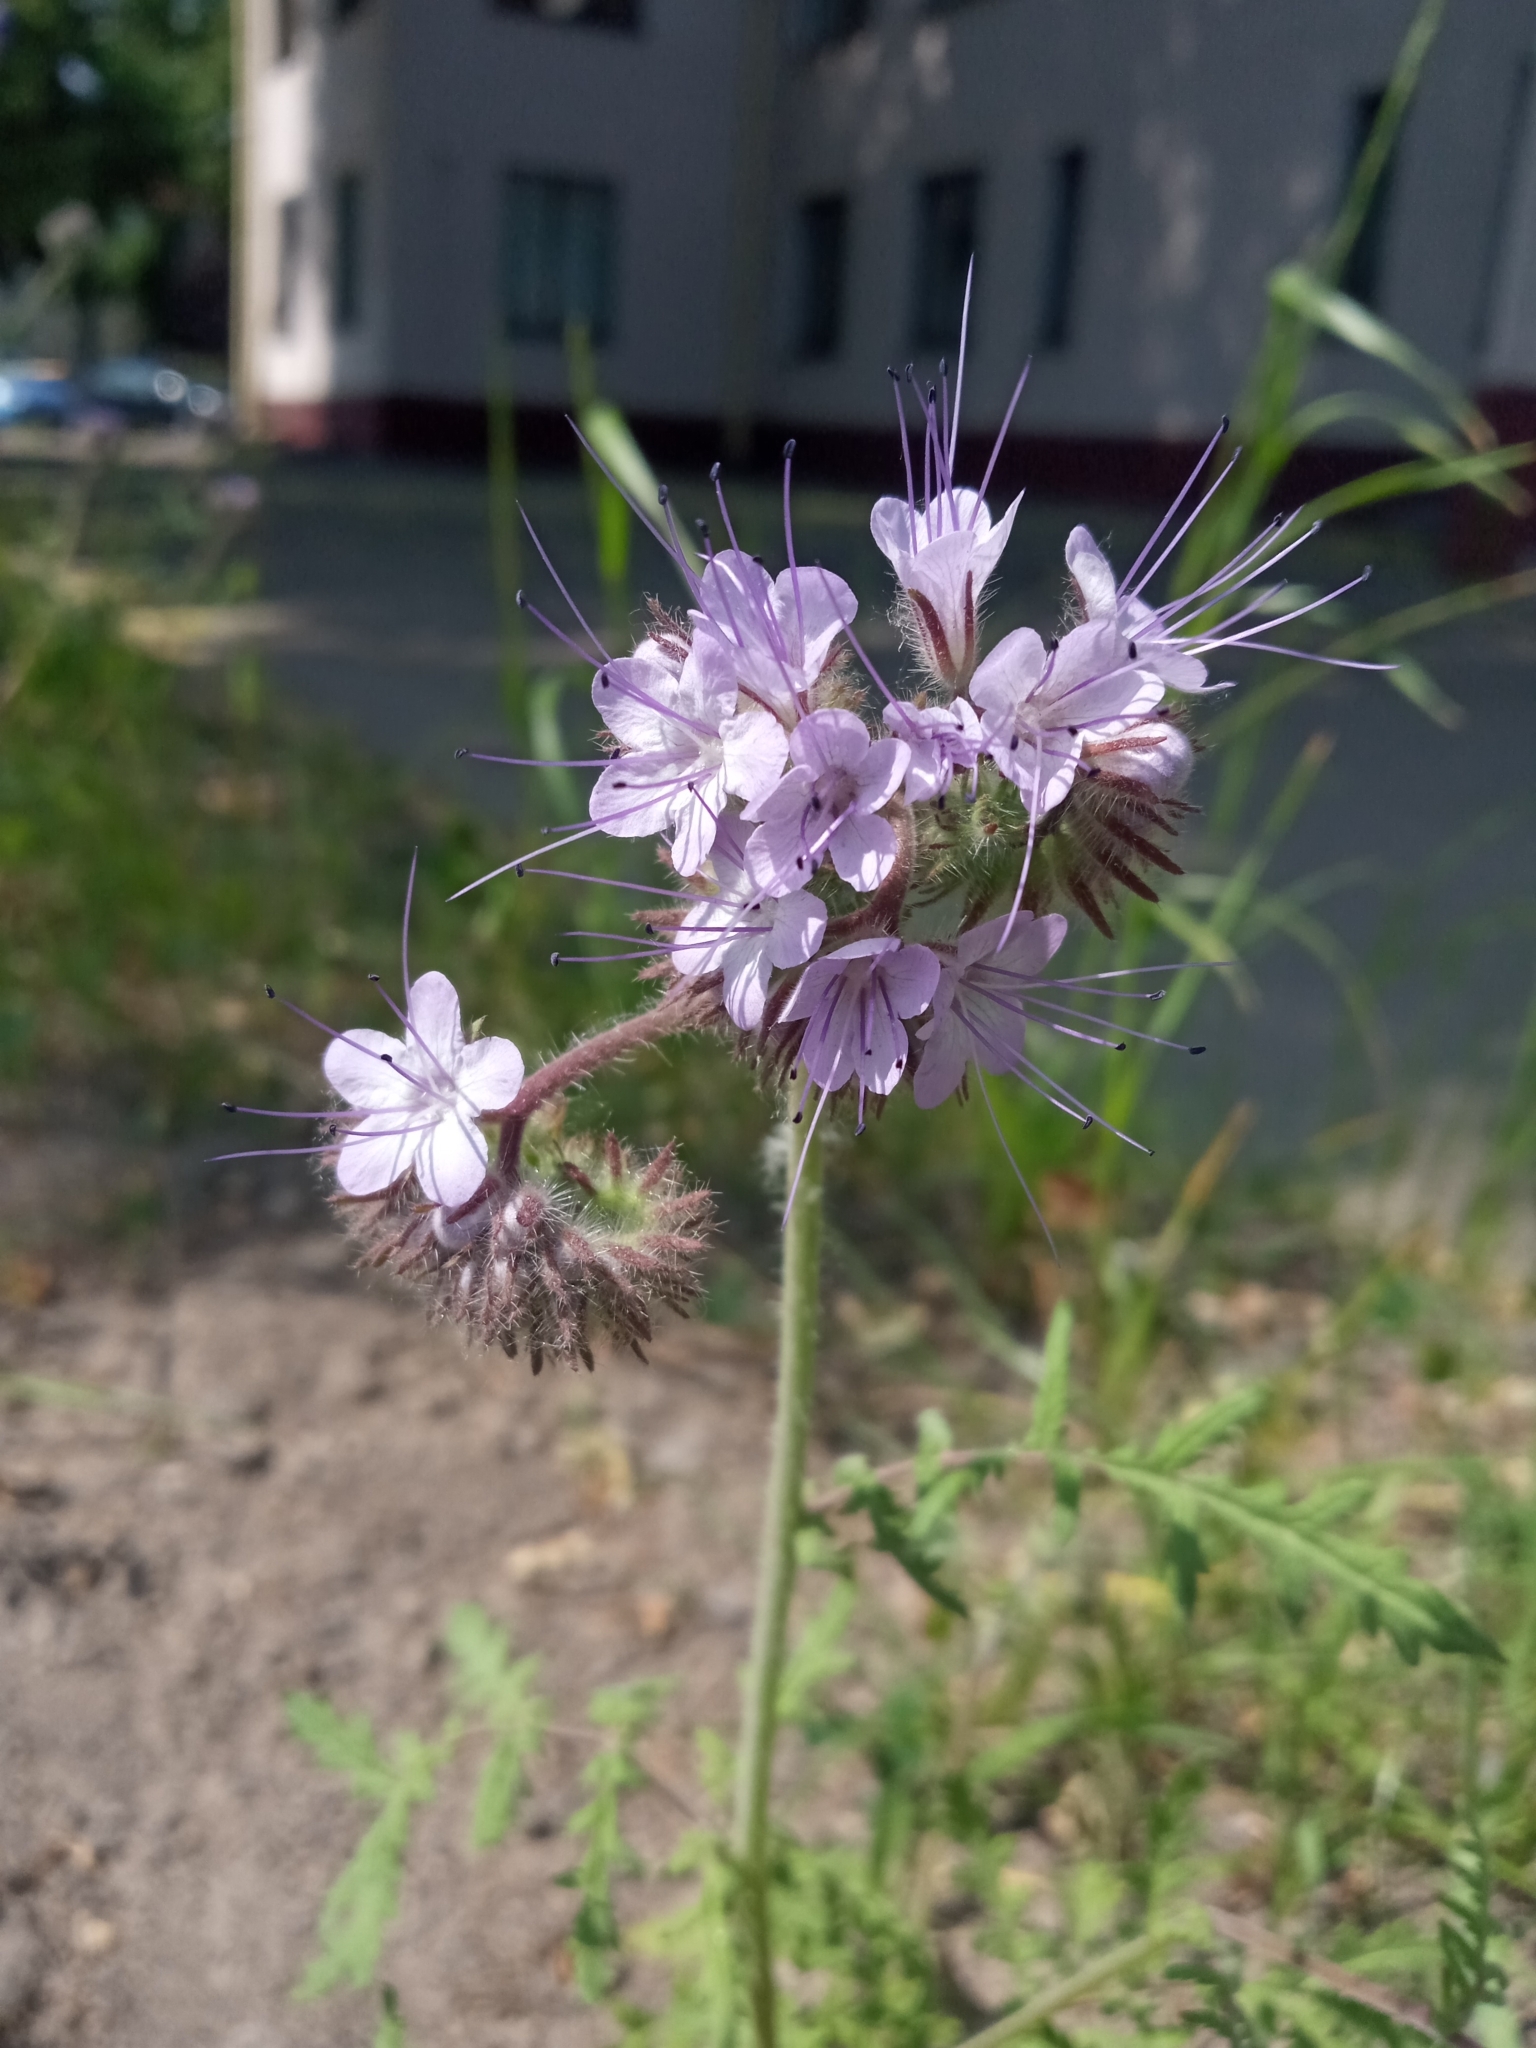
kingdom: Plantae
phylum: Tracheophyta
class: Magnoliopsida
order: Boraginales
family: Hydrophyllaceae
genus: Phacelia
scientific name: Phacelia tanacetifolia
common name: Phacelia
